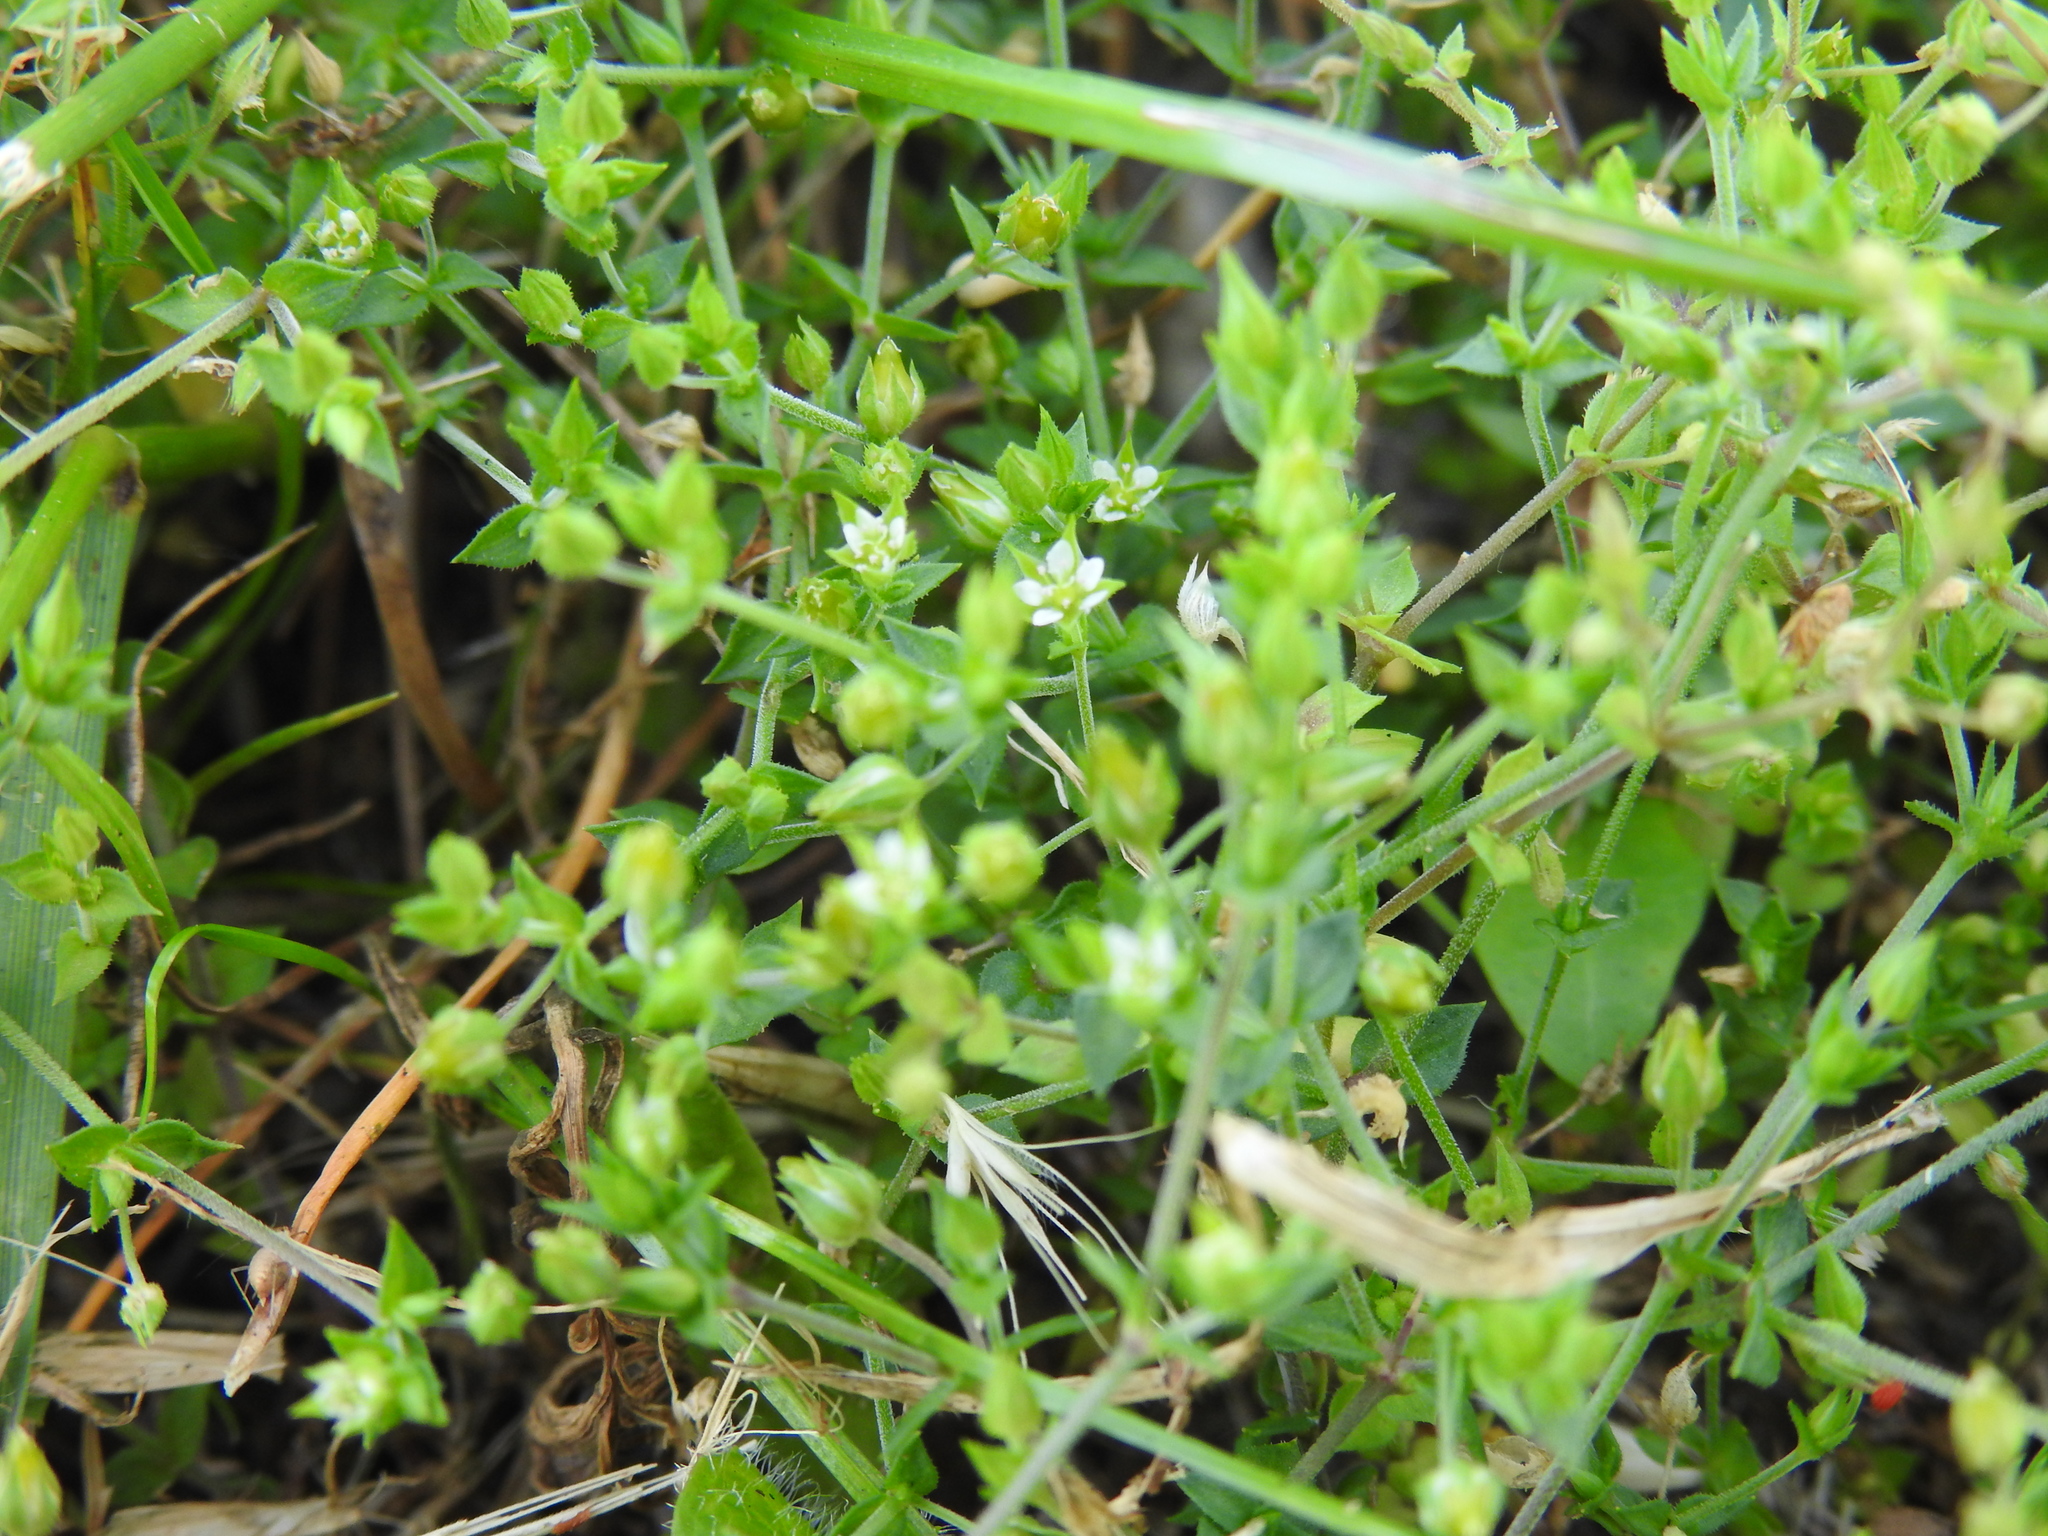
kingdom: Plantae
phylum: Tracheophyta
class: Magnoliopsida
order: Caryophyllales
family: Caryophyllaceae
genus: Arenaria
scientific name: Arenaria serpyllifolia
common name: Thyme-leaved sandwort
